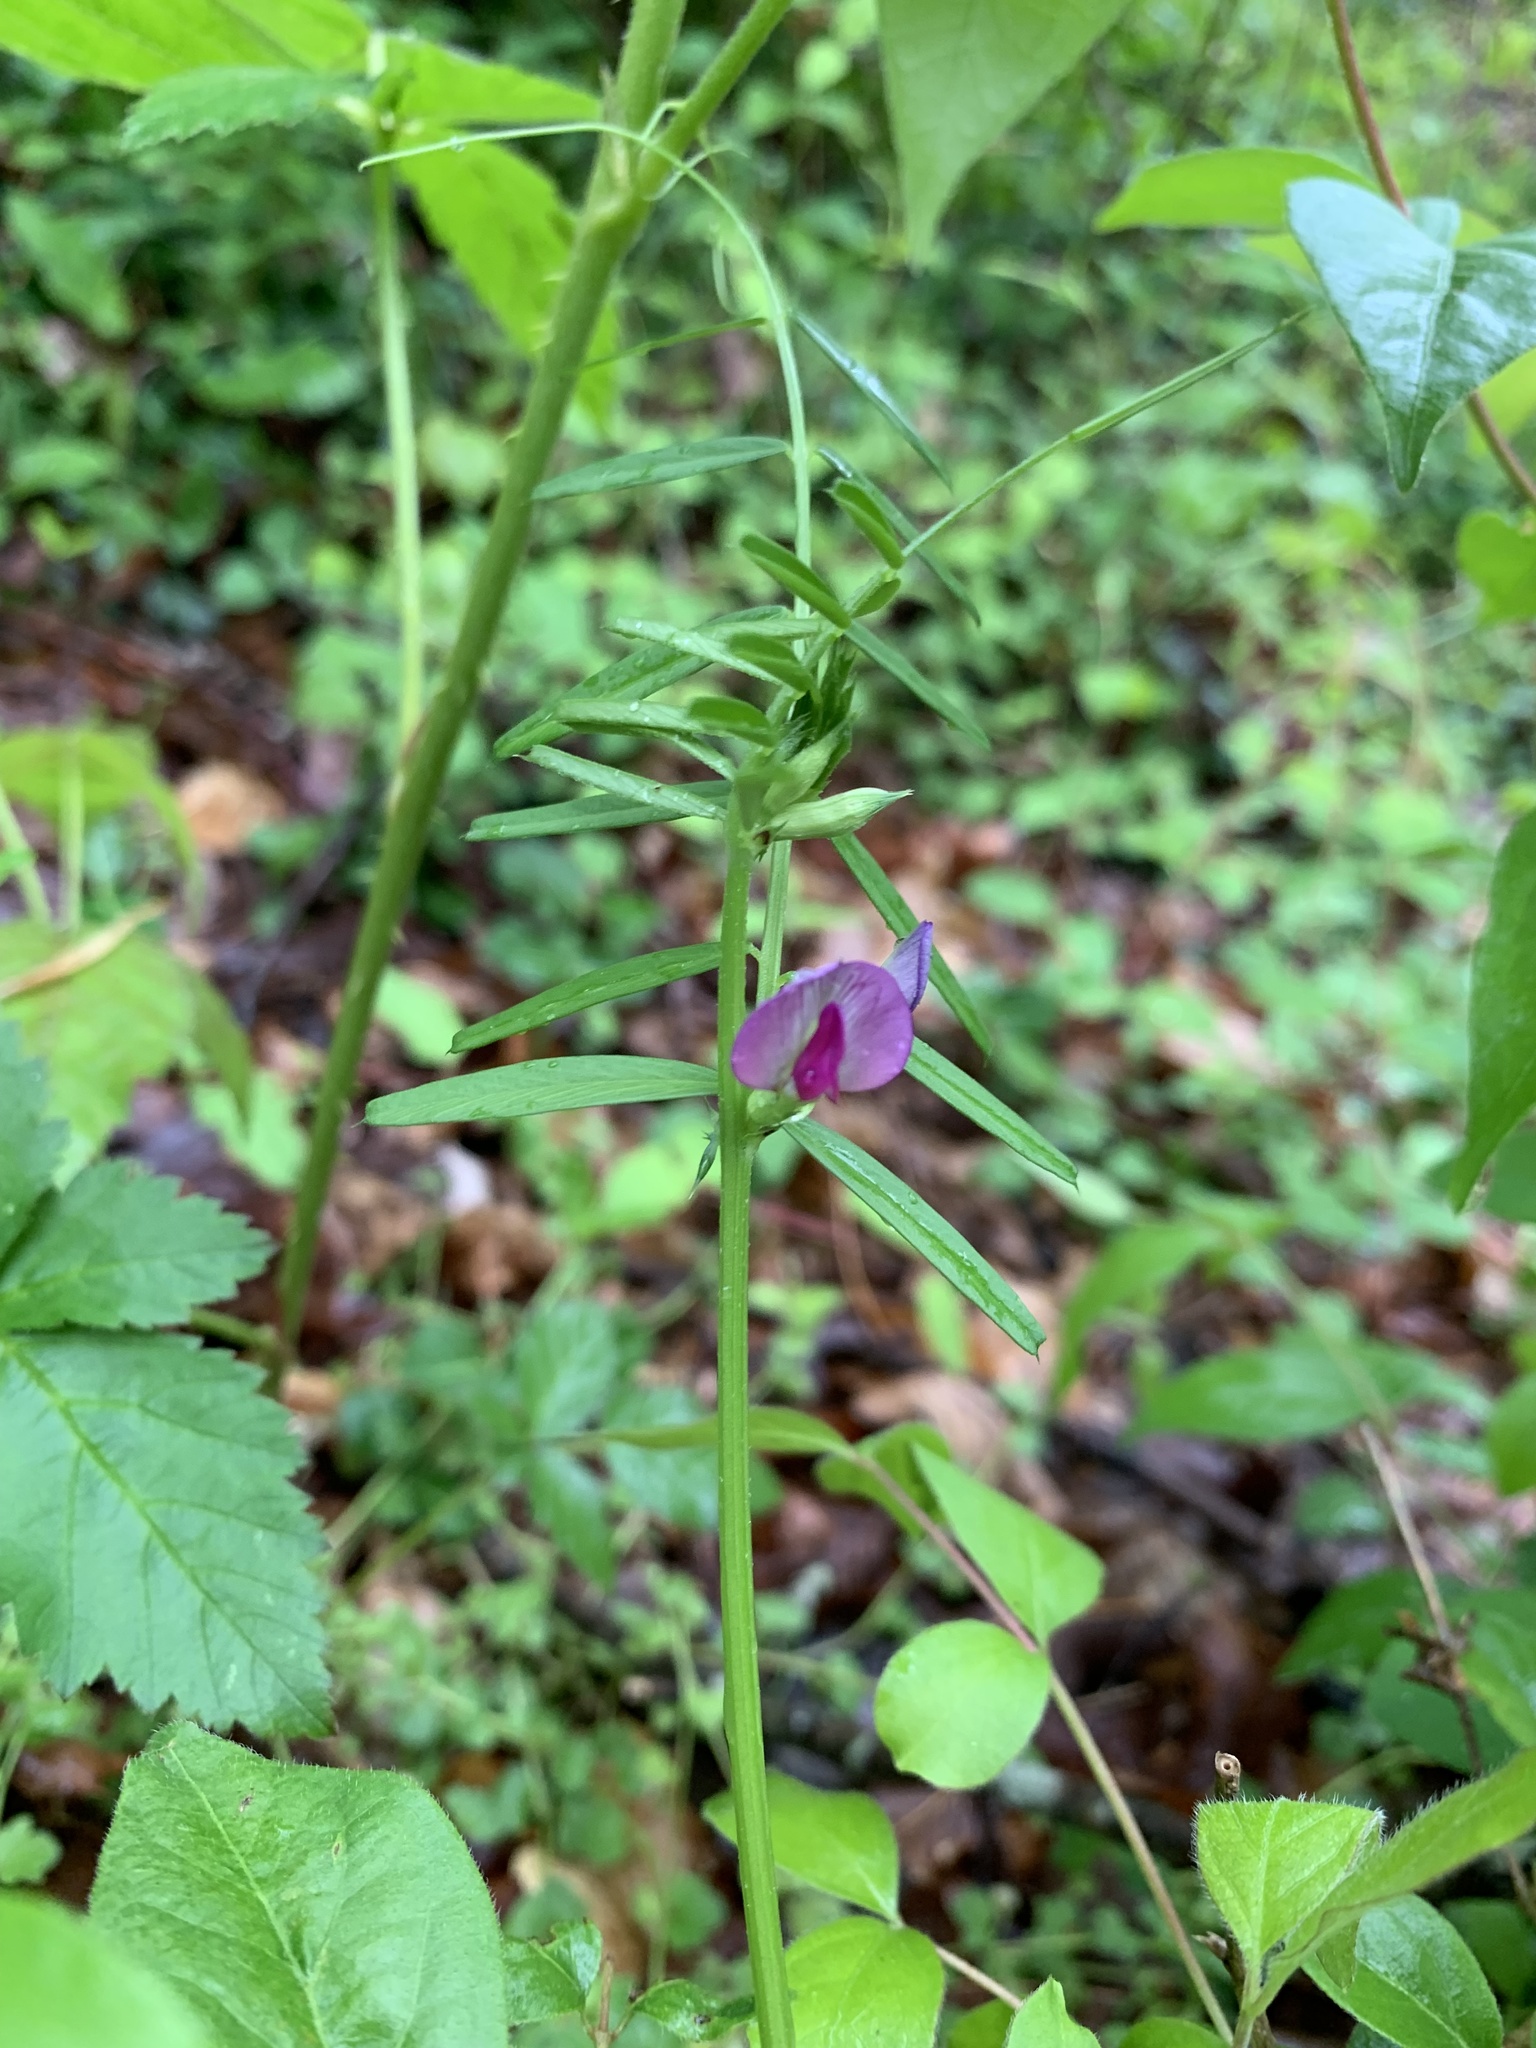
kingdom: Plantae
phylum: Tracheophyta
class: Magnoliopsida
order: Fabales
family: Fabaceae
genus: Vicia
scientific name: Vicia sativa
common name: Garden vetch
